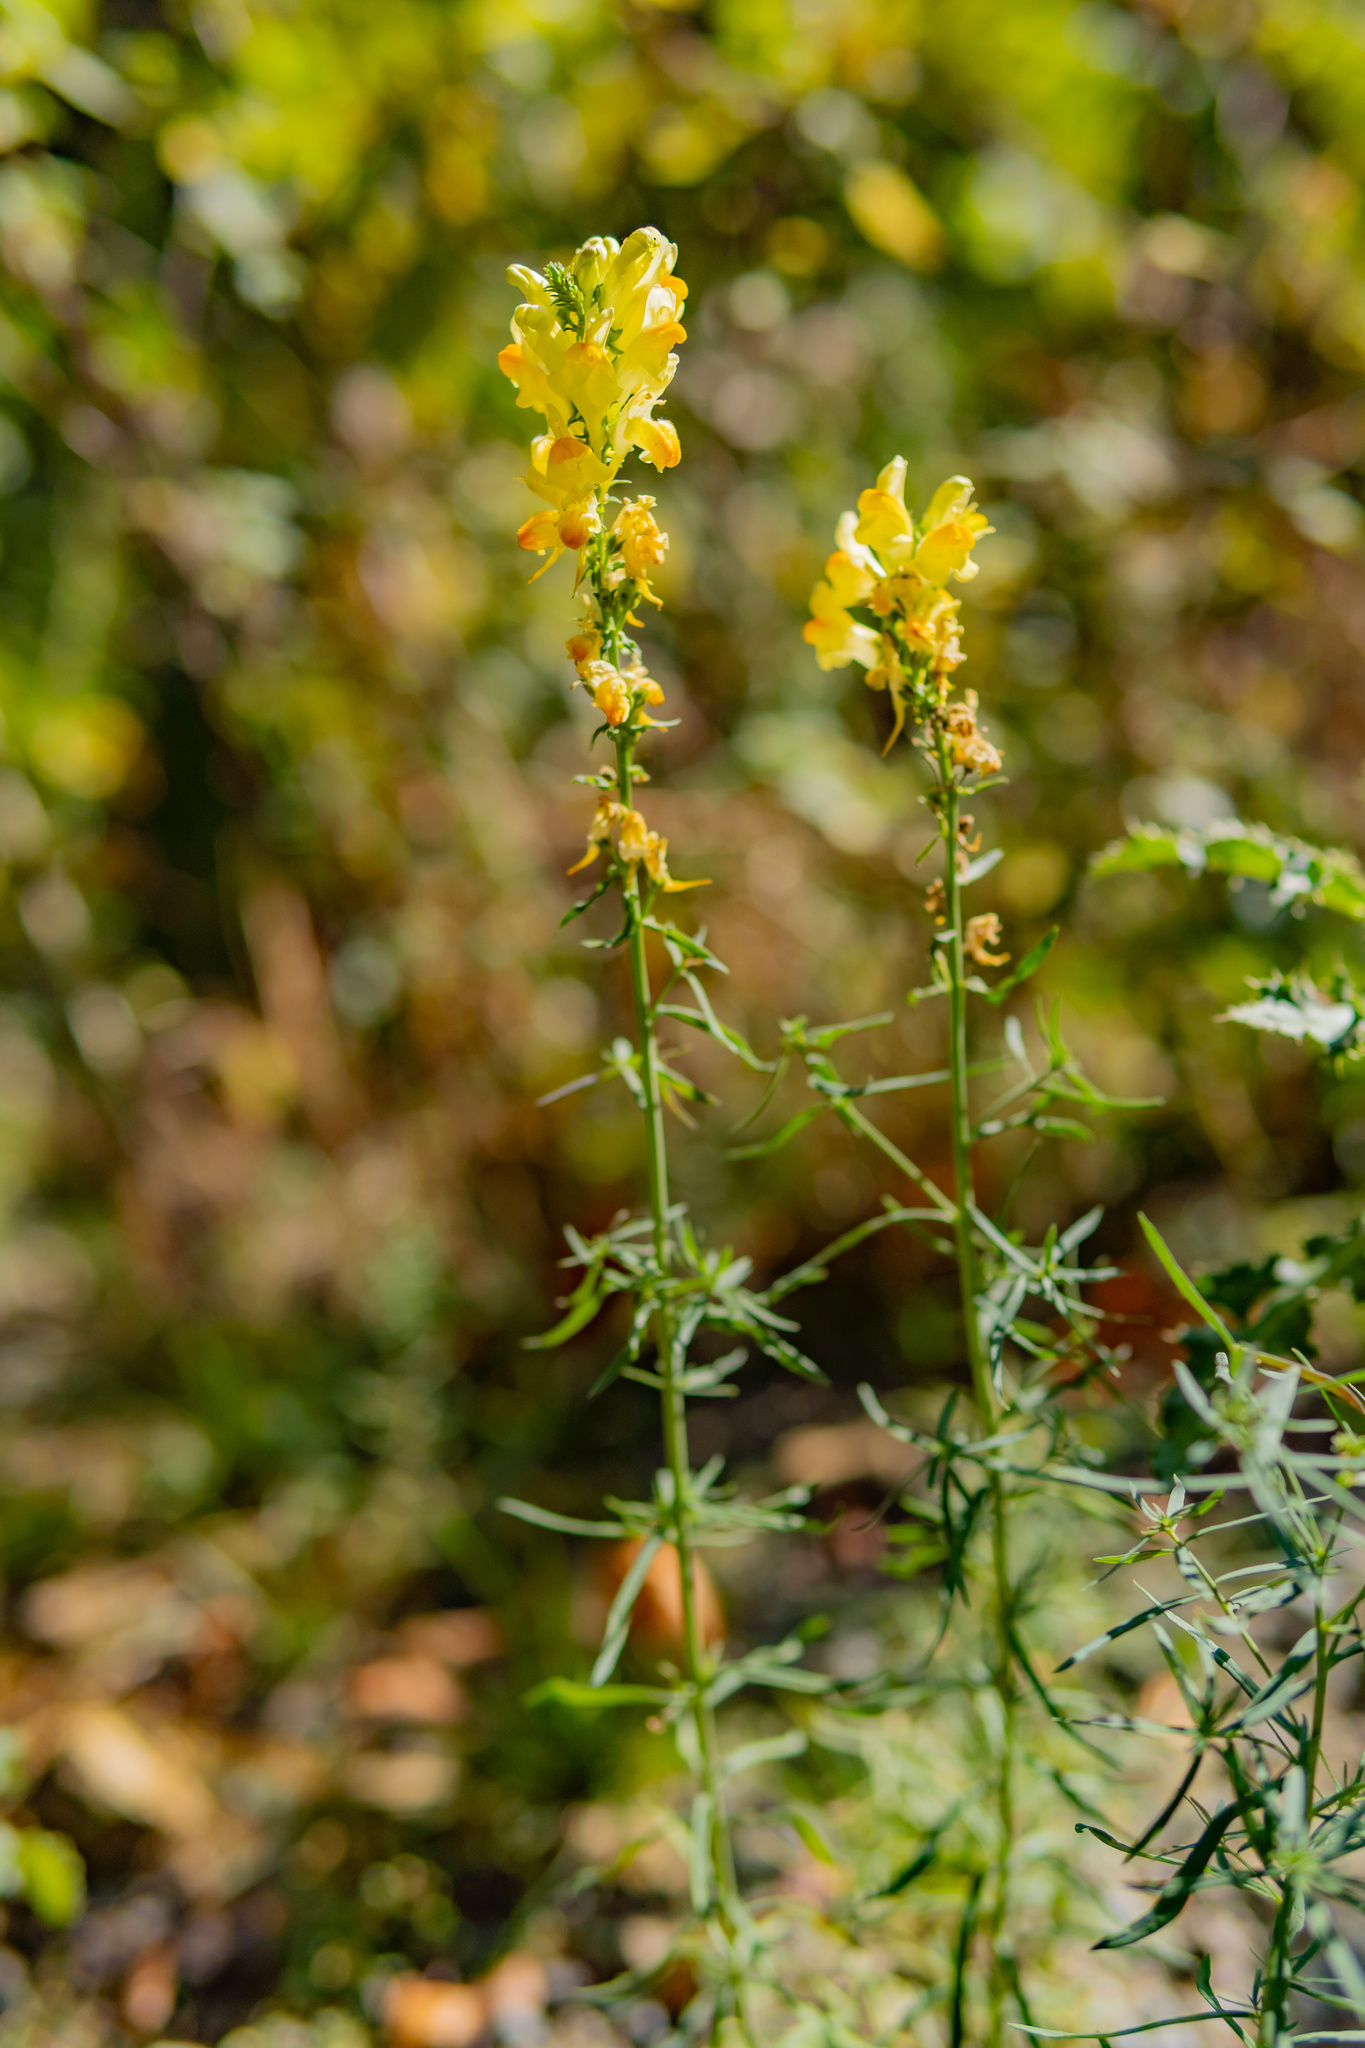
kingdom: Plantae
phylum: Tracheophyta
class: Magnoliopsida
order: Lamiales
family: Plantaginaceae
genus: Linaria
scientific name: Linaria vulgaris
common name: Butter and eggs
